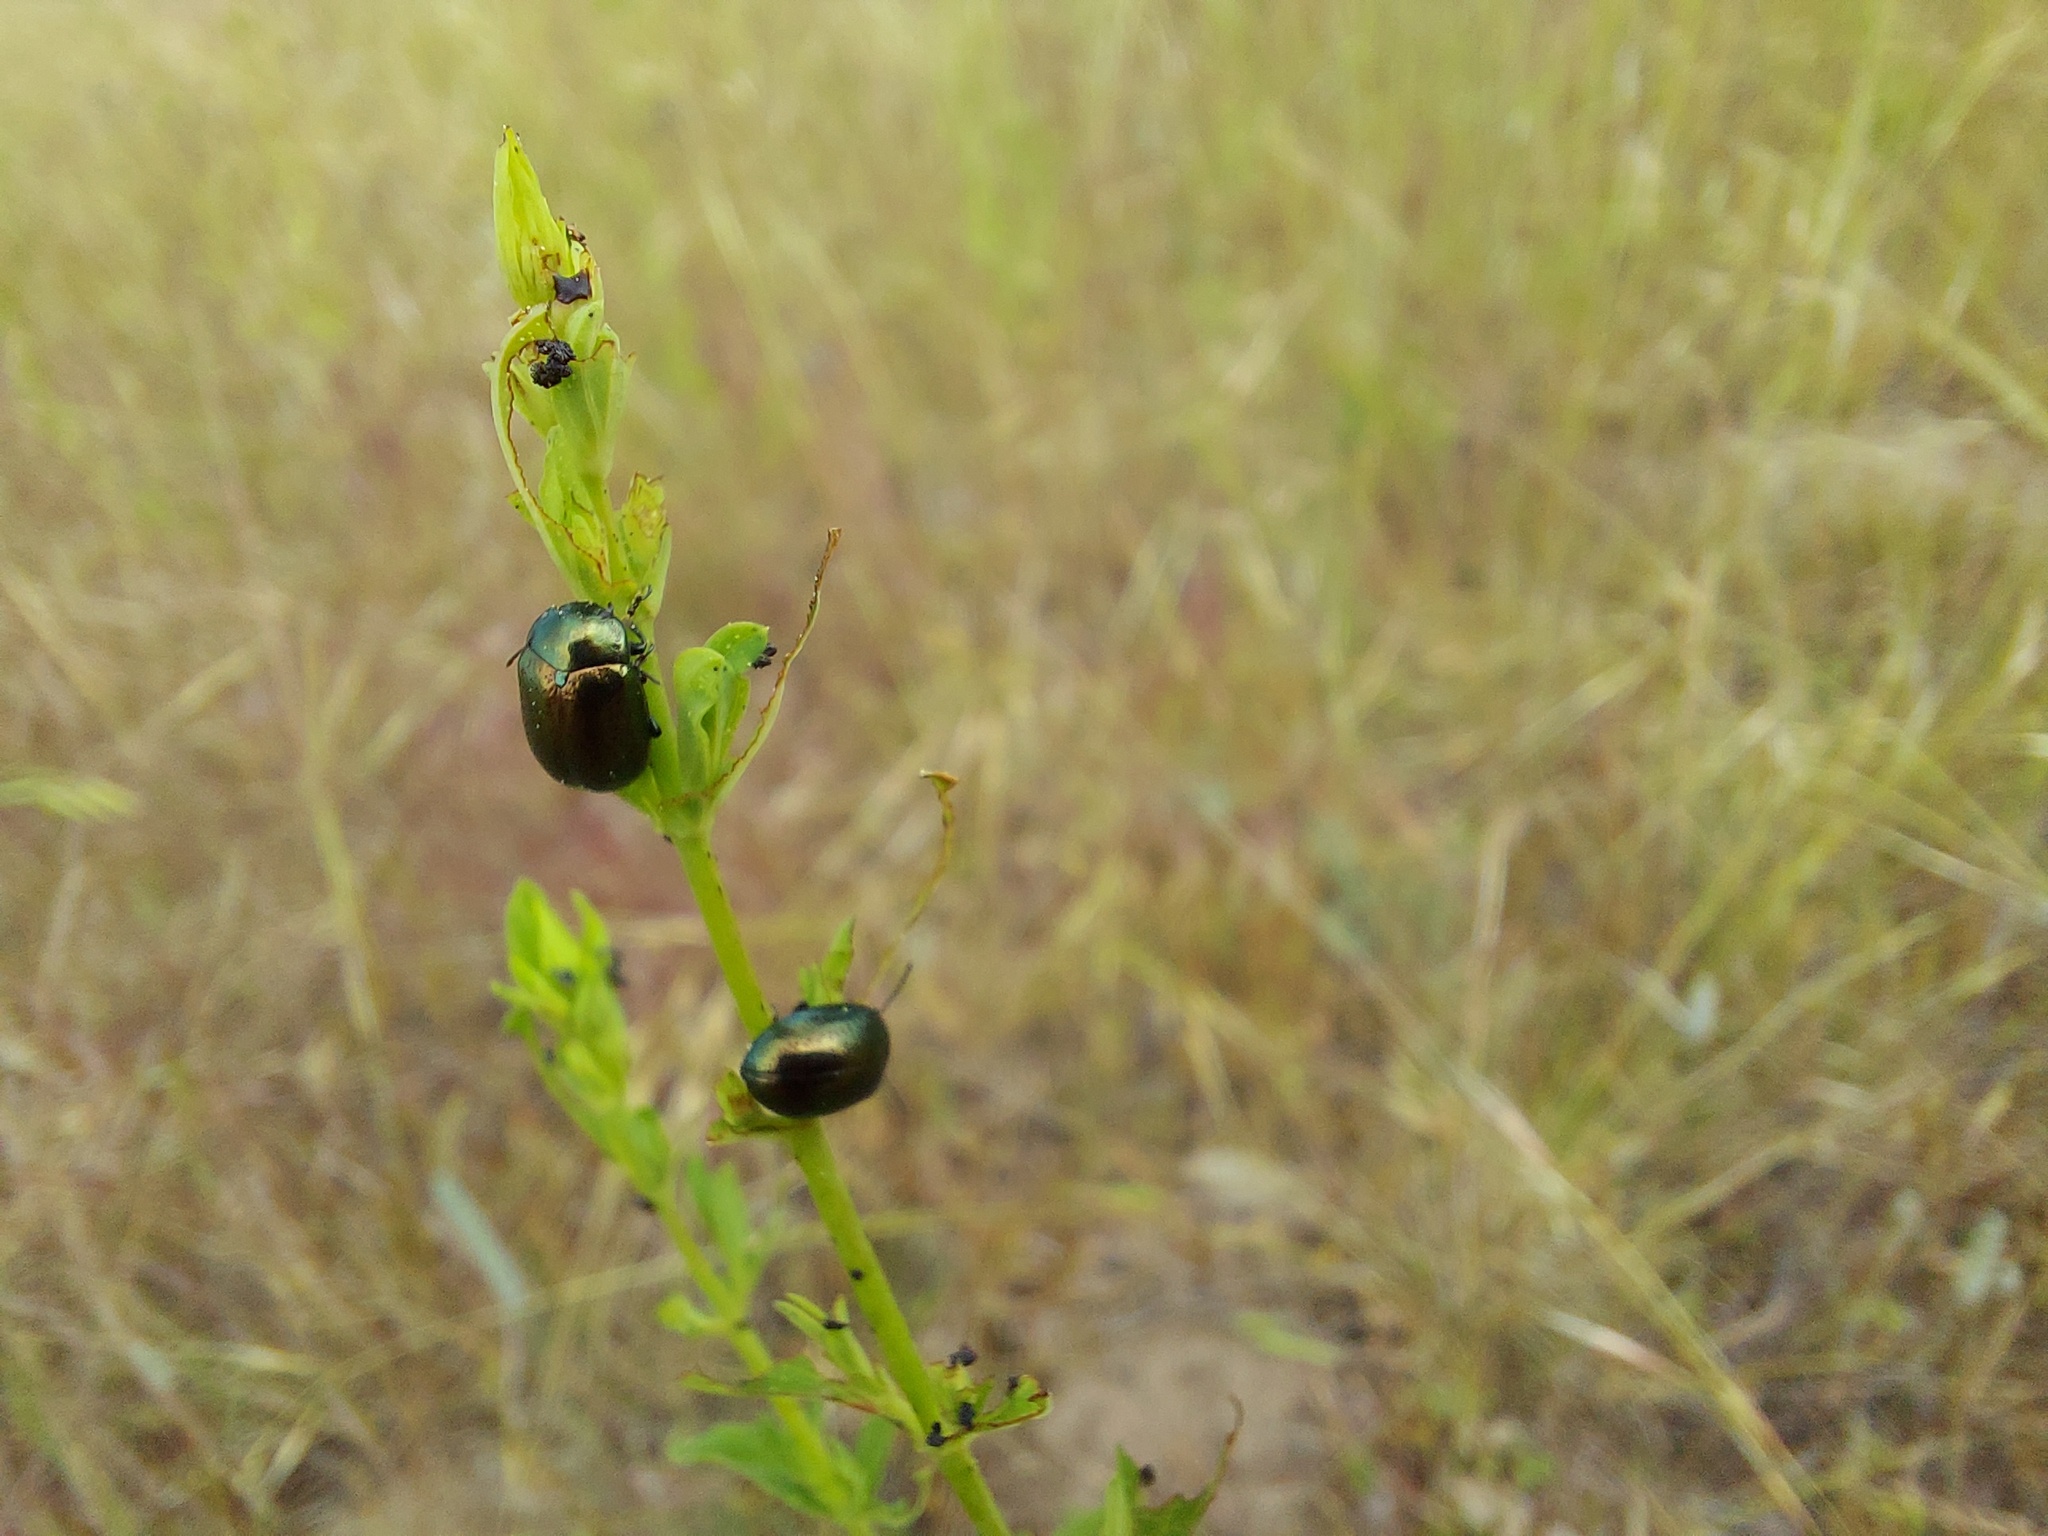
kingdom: Animalia
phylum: Arthropoda
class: Insecta
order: Coleoptera
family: Chrysomelidae
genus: Chrysolina
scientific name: Chrysolina hyperici
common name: St. johnswort beetle
